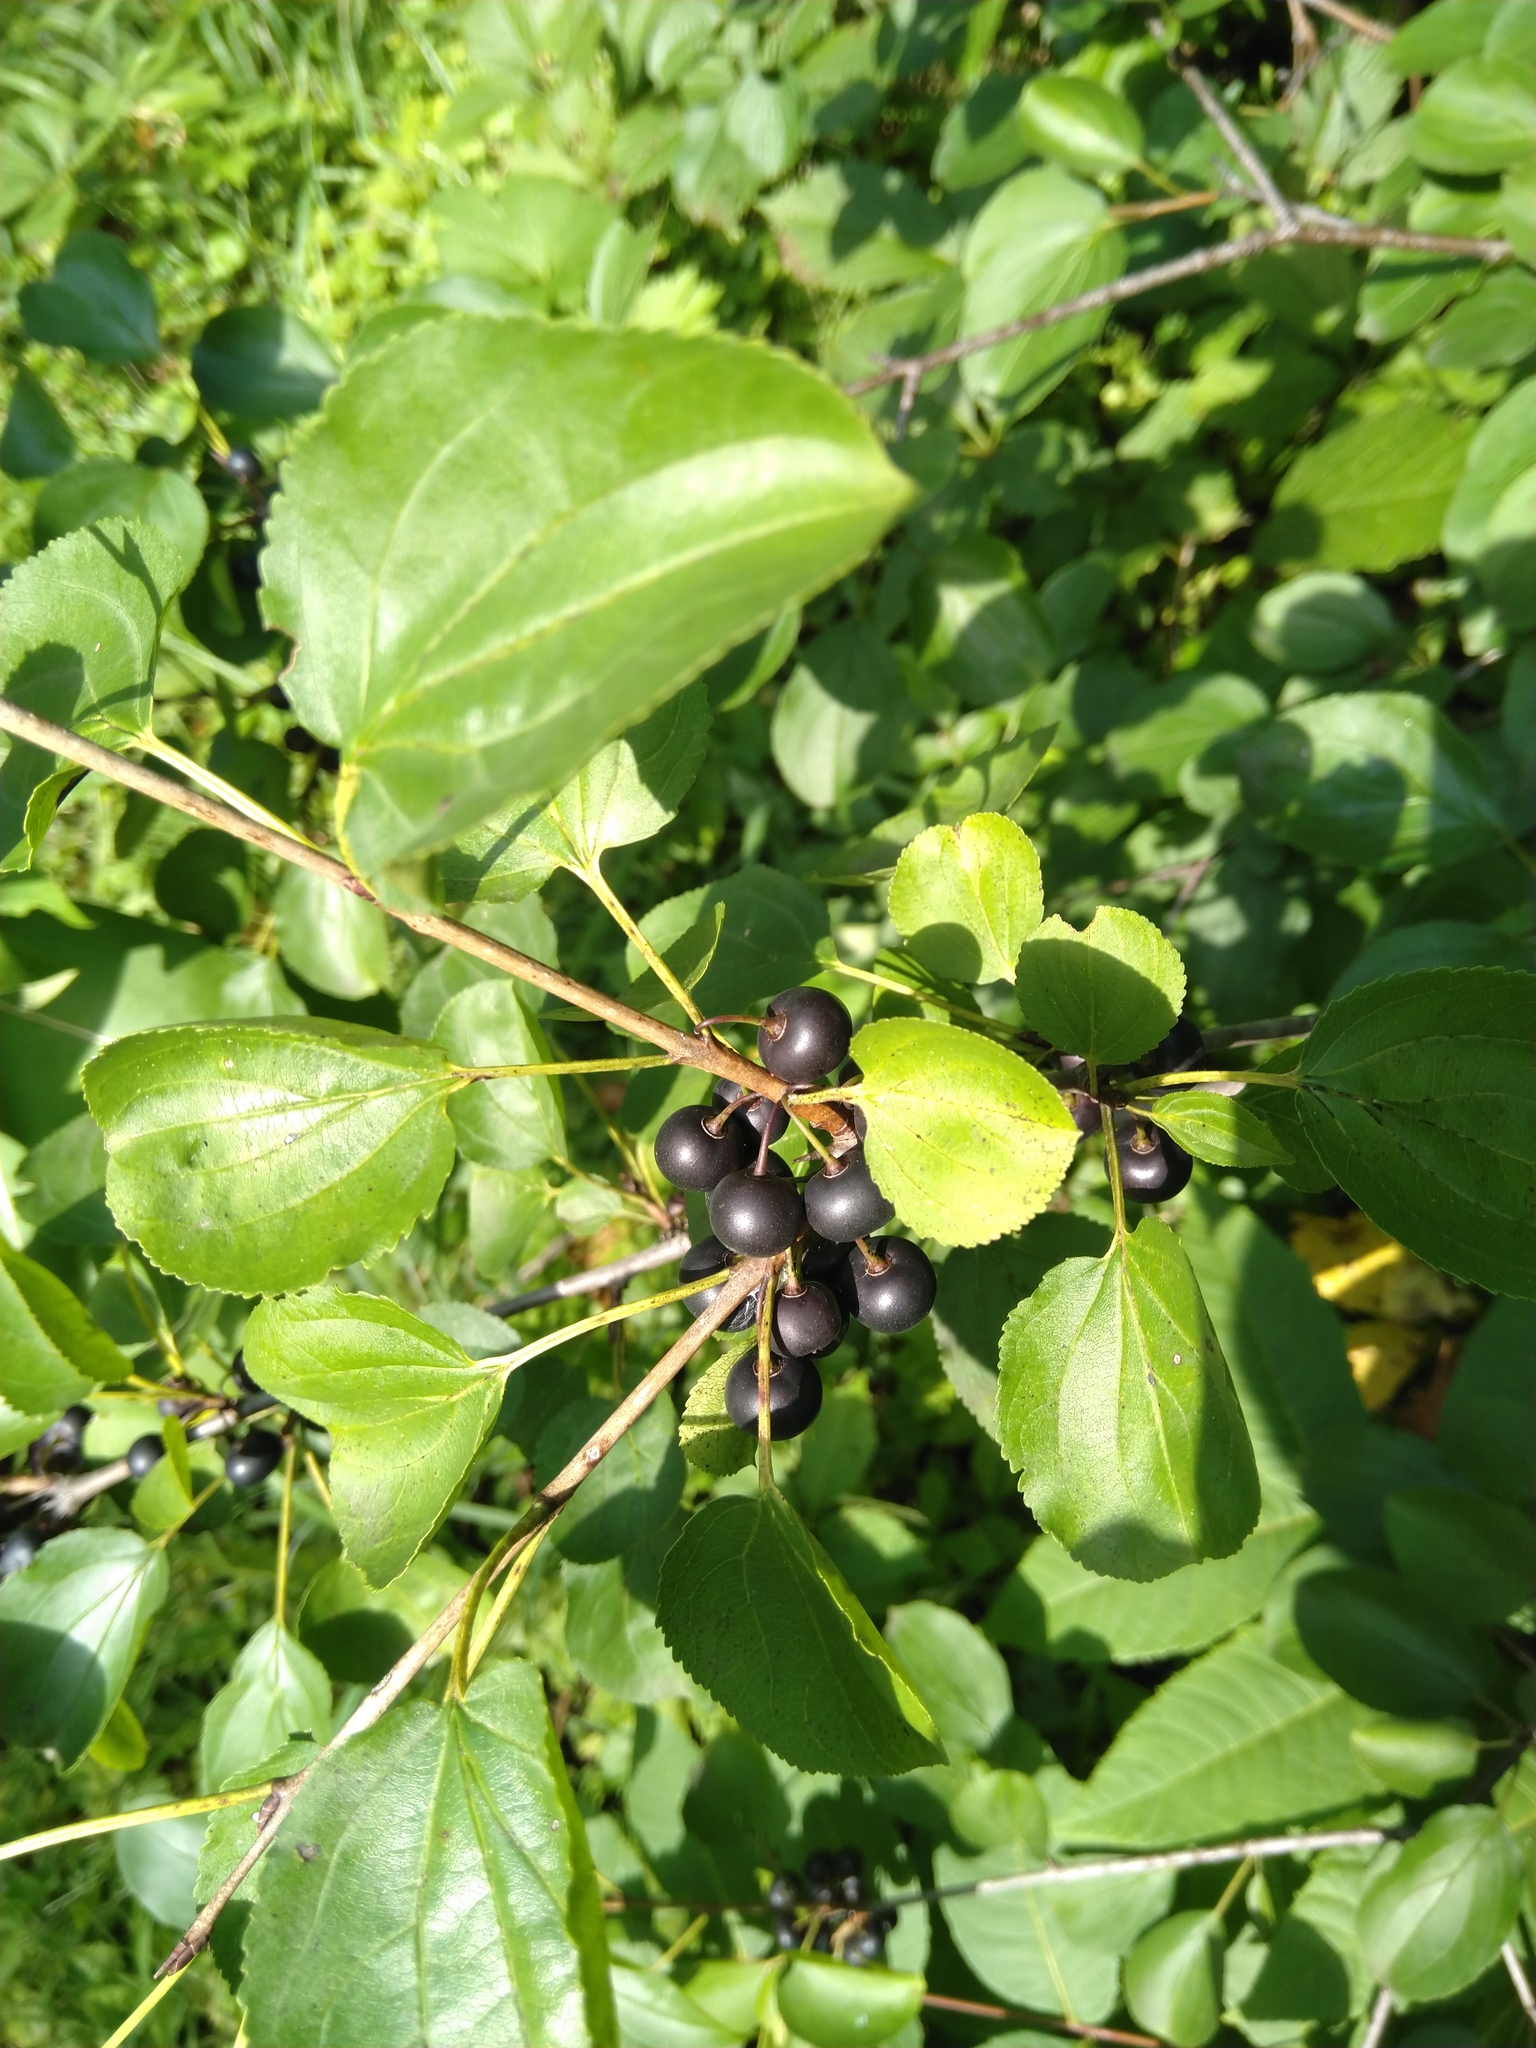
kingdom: Plantae
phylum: Tracheophyta
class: Magnoliopsida
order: Rosales
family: Rhamnaceae
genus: Rhamnus
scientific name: Rhamnus cathartica
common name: Common buckthorn
